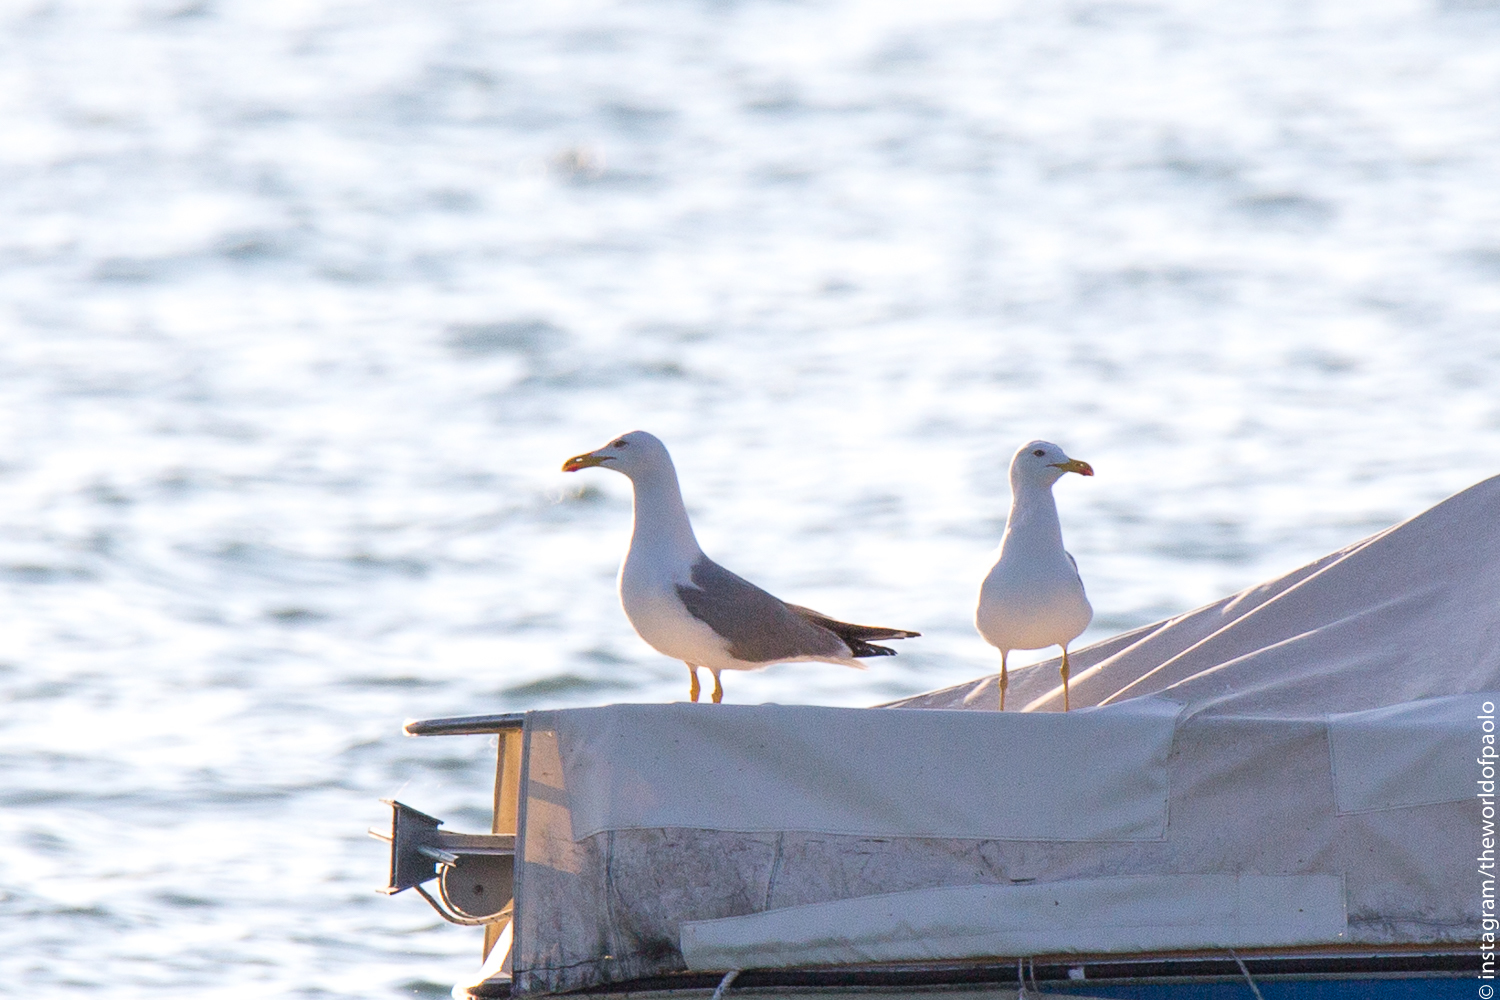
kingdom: Animalia
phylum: Chordata
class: Aves
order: Charadriiformes
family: Laridae
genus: Larus
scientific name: Larus michahellis
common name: Yellow-legged gull
